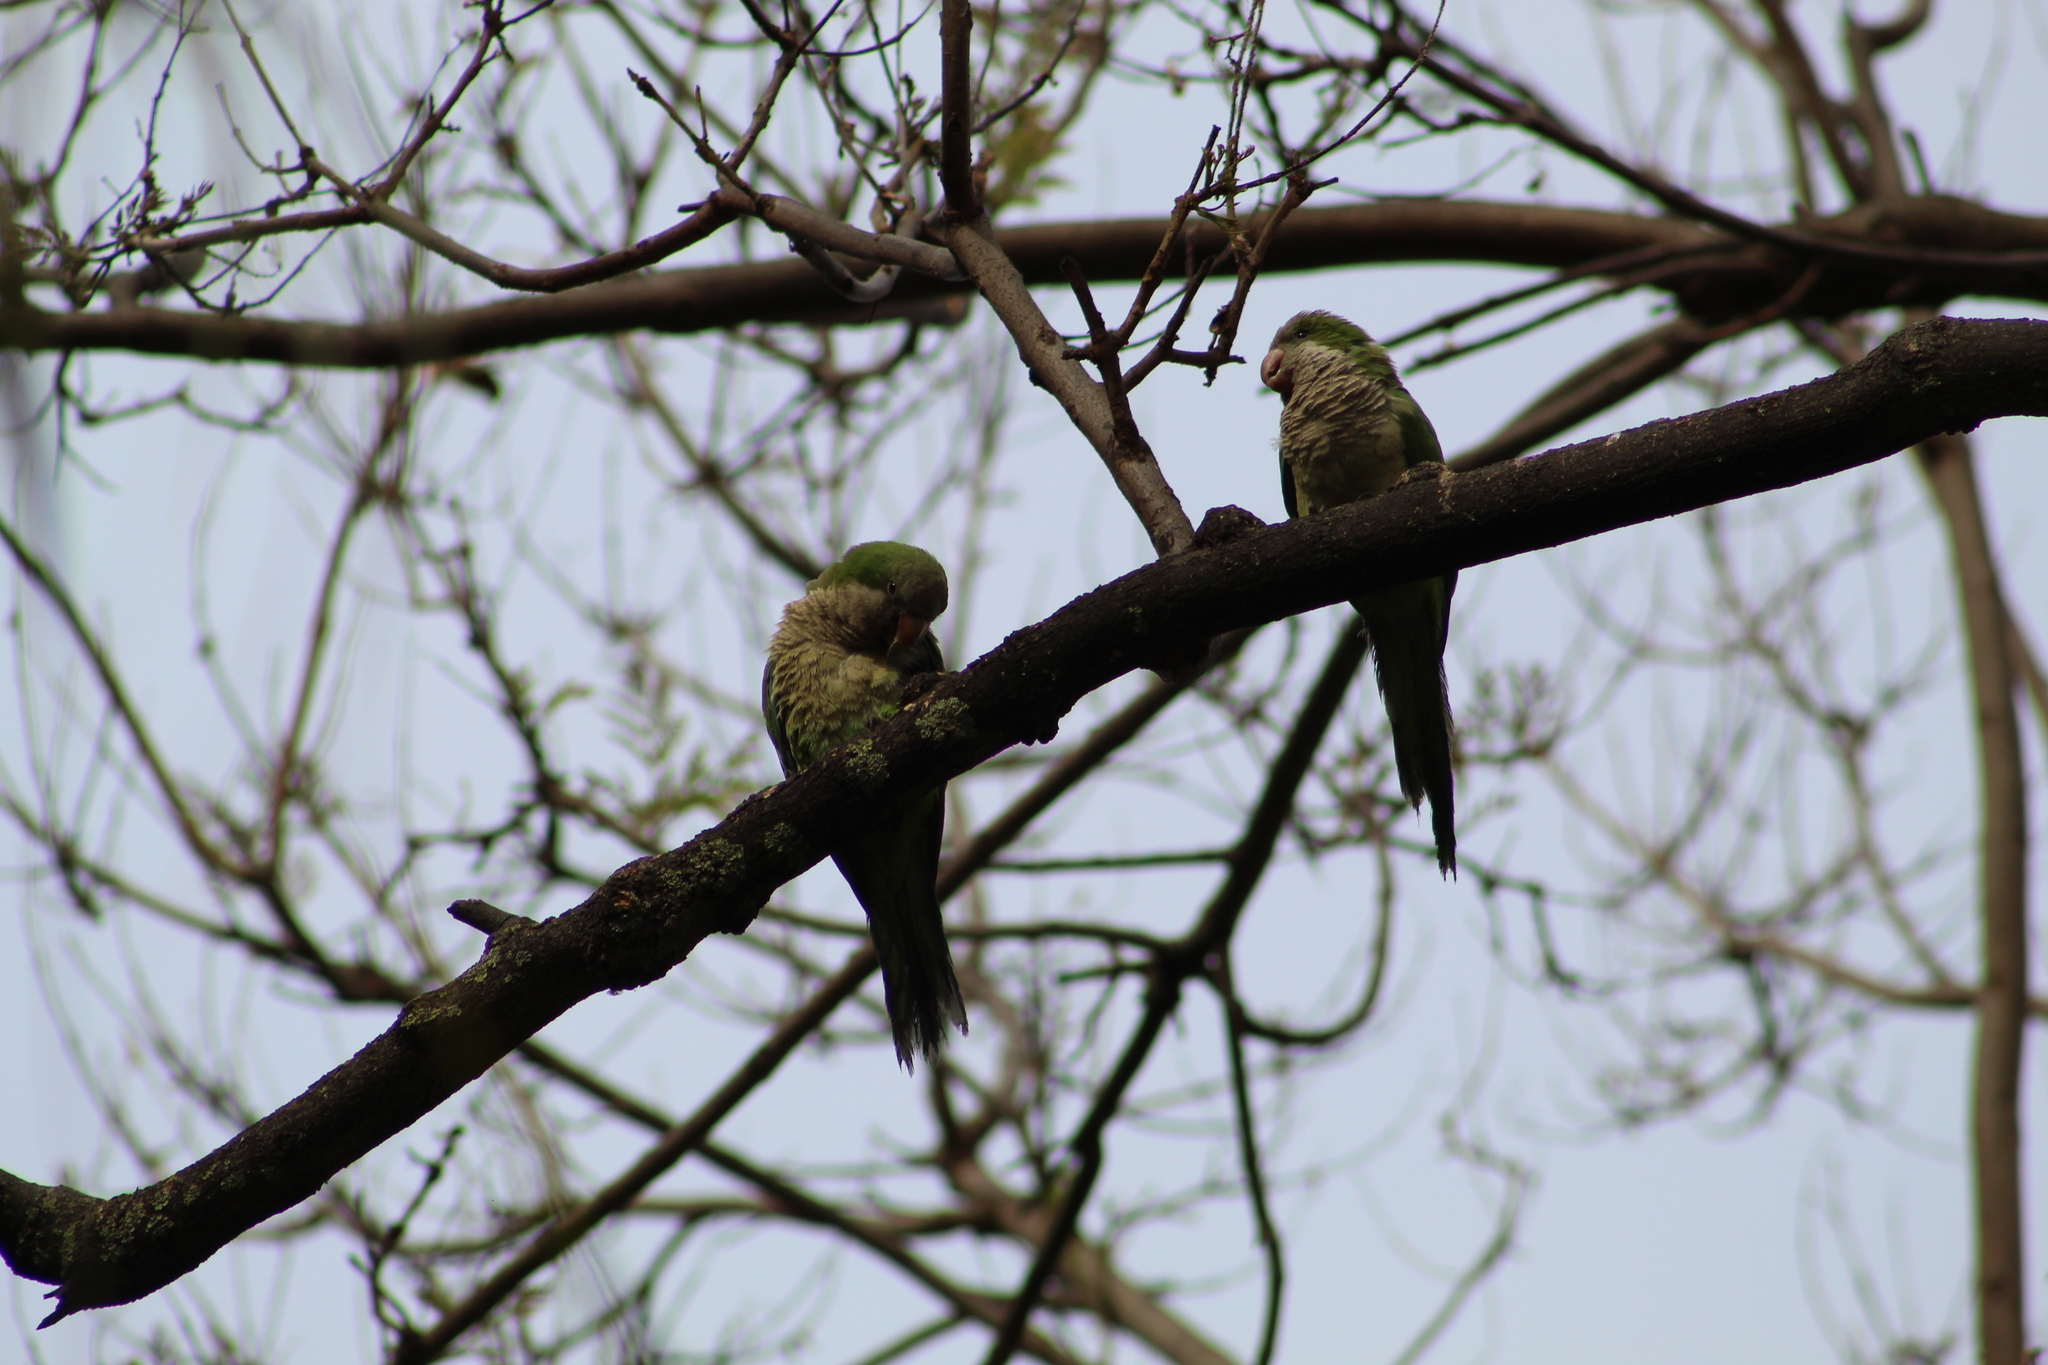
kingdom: Animalia
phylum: Chordata
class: Aves
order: Psittaciformes
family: Psittacidae
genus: Myiopsitta
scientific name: Myiopsitta monachus
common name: Monk parakeet
